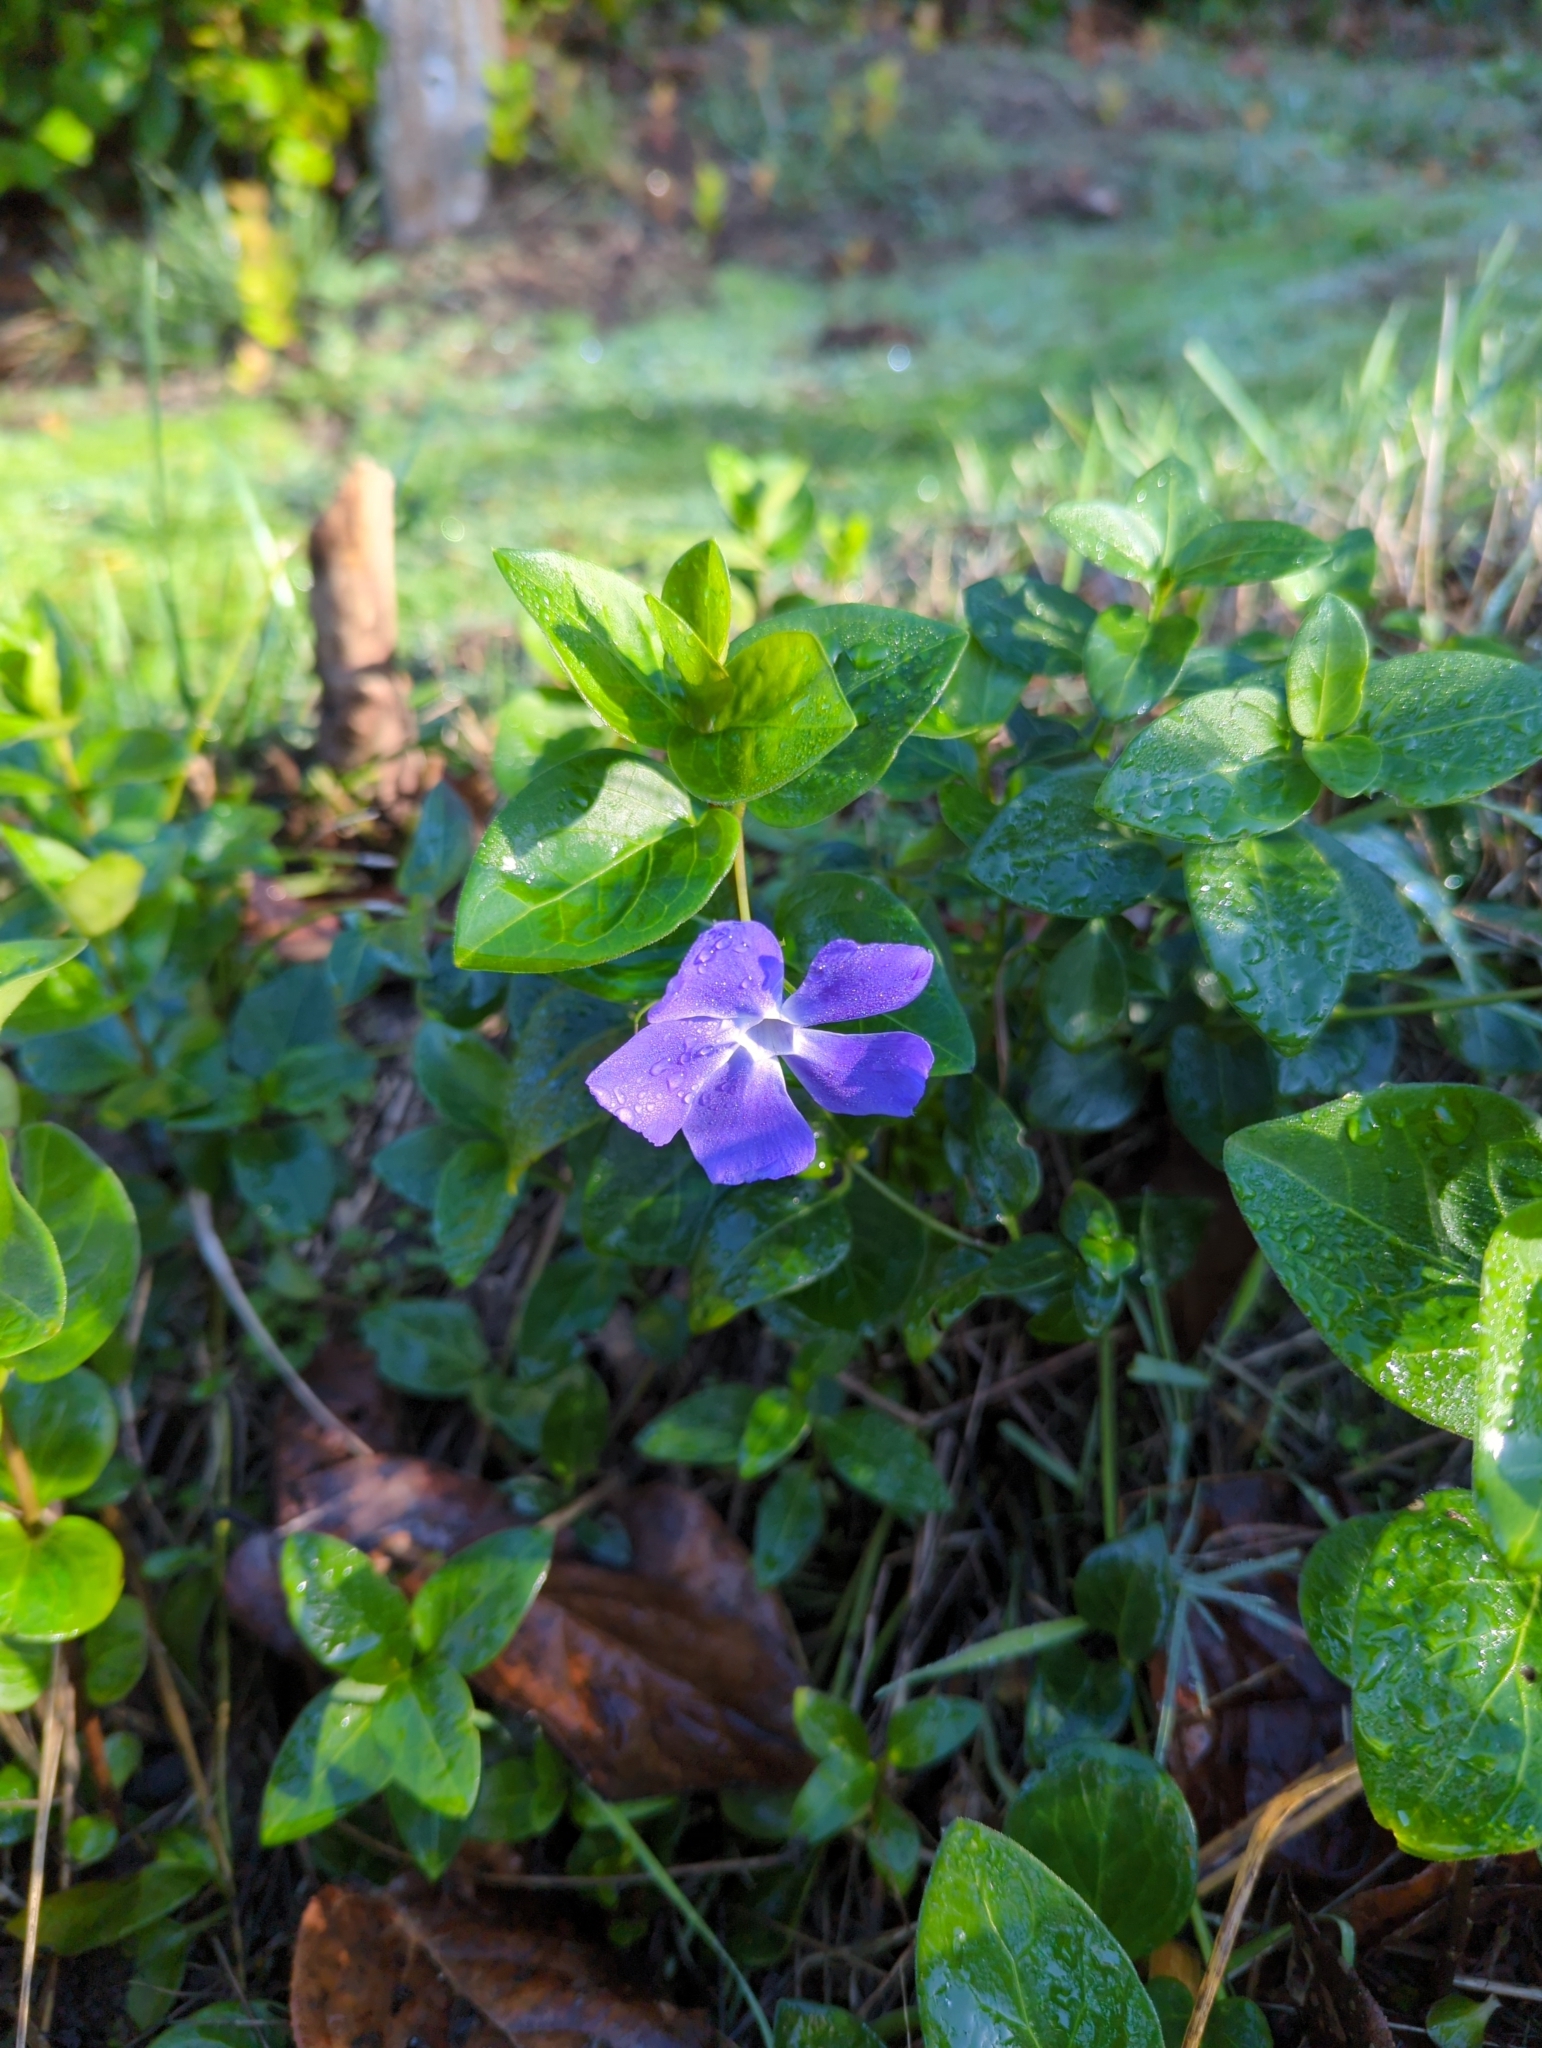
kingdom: Plantae
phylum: Tracheophyta
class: Magnoliopsida
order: Gentianales
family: Apocynaceae
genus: Vinca
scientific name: Vinca major
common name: Greater periwinkle
